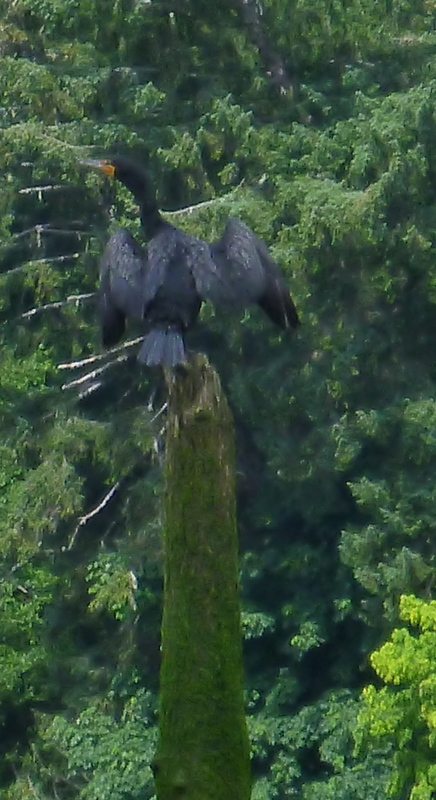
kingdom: Animalia
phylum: Chordata
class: Aves
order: Suliformes
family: Phalacrocoracidae
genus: Phalacrocorax
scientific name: Phalacrocorax auritus
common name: Double-crested cormorant
